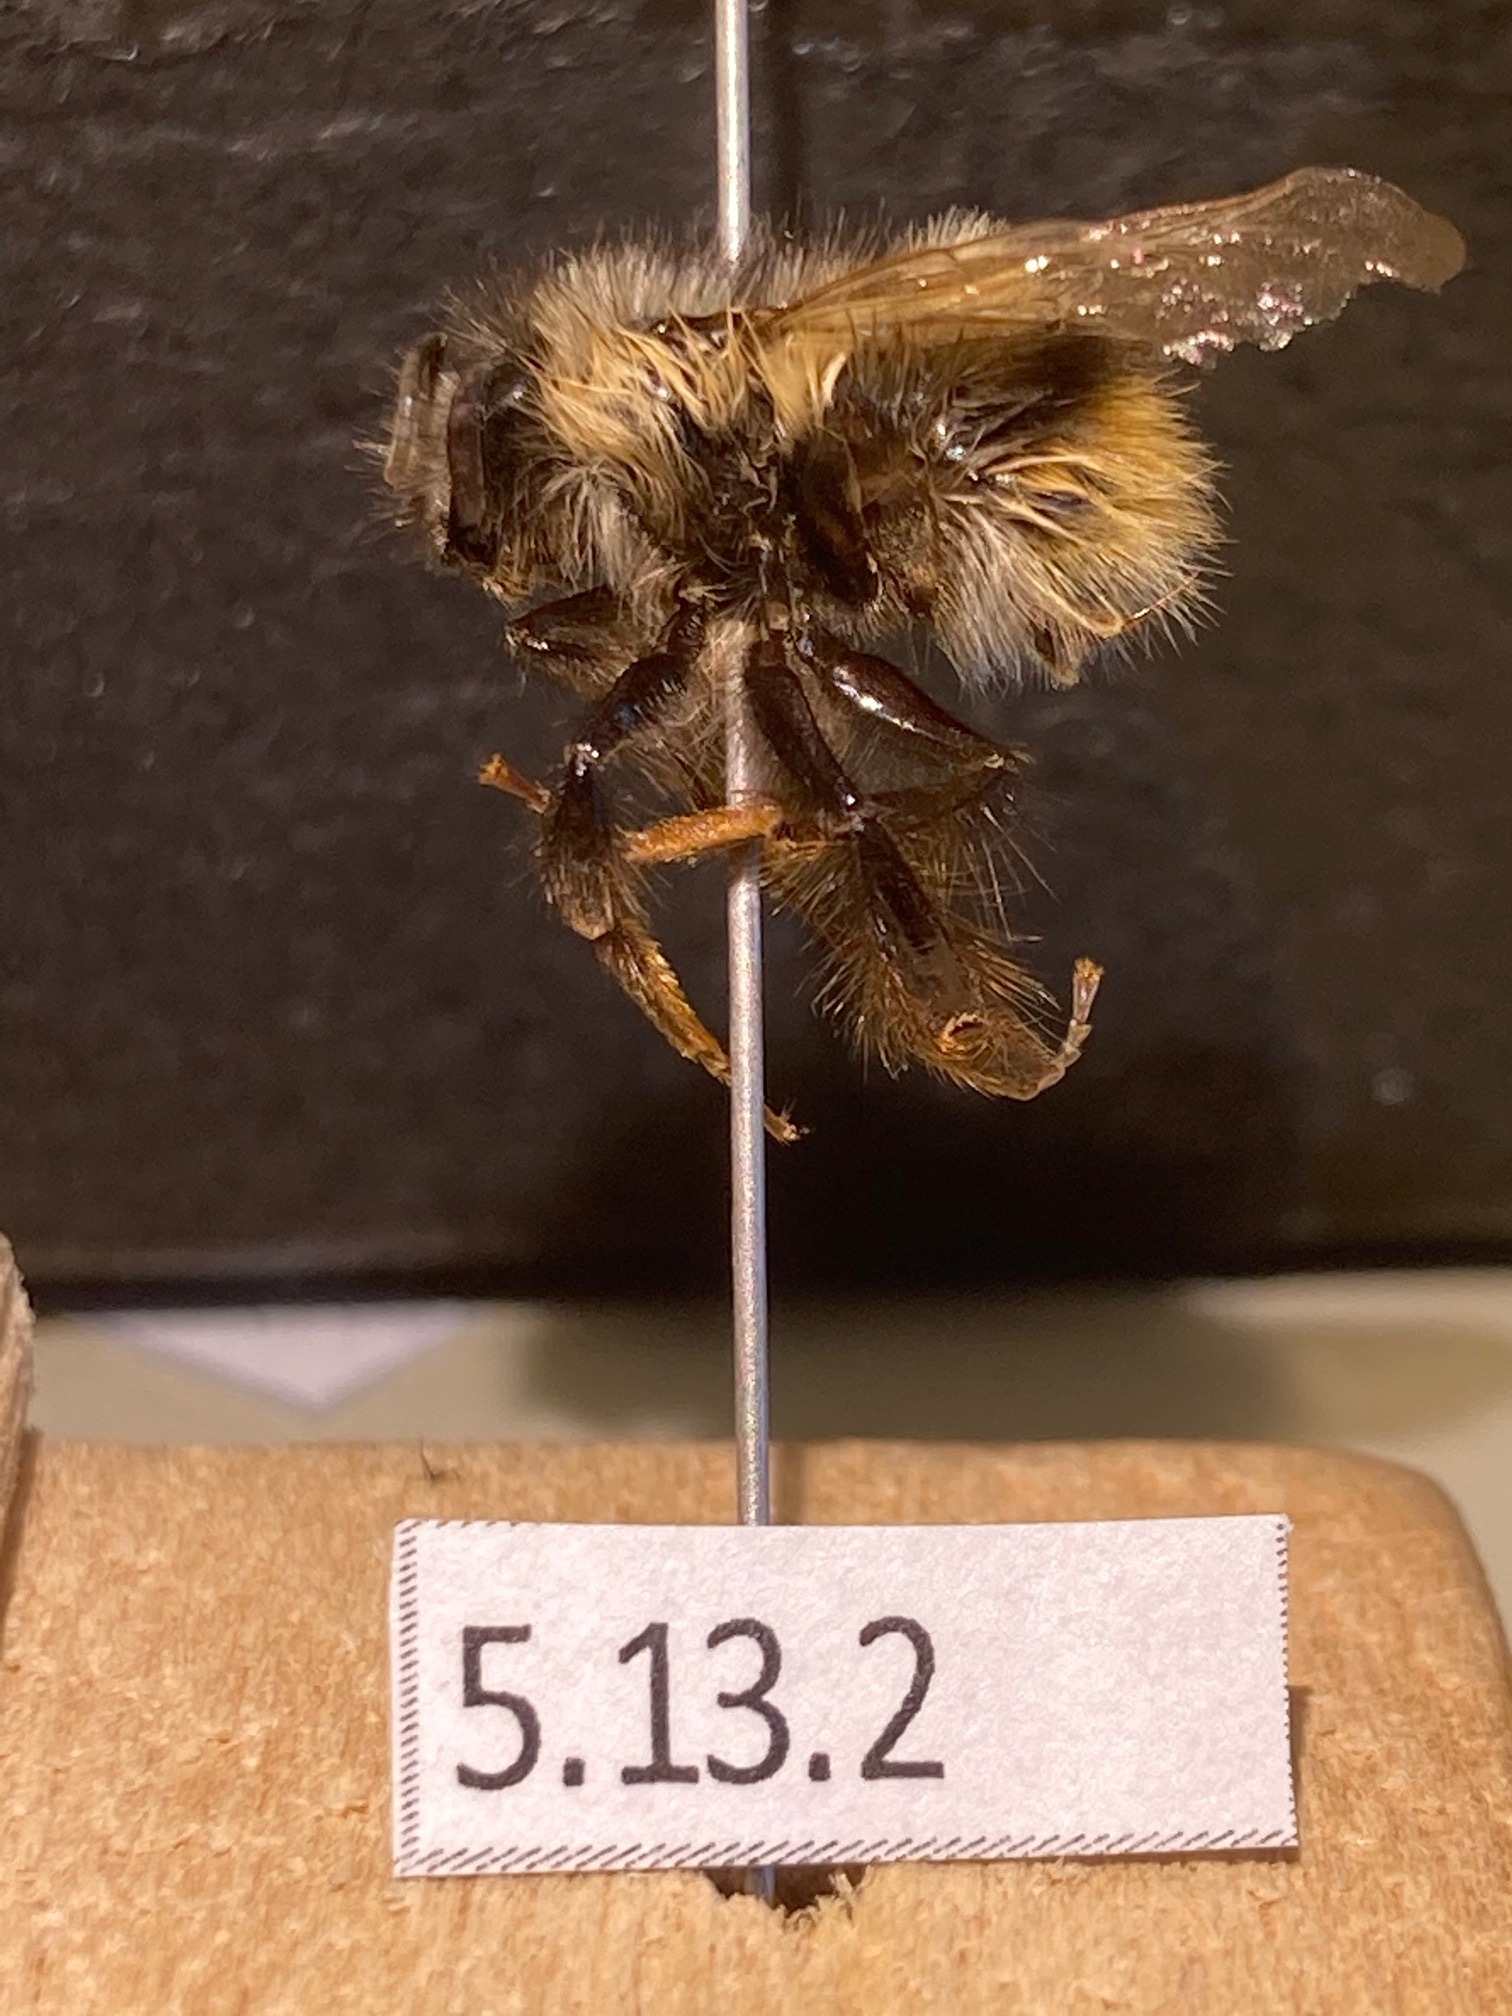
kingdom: Animalia
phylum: Arthropoda
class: Insecta
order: Hymenoptera
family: Apidae
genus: Bombus
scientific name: Bombus mixtus
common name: Fuzzy-horned bumble bee
